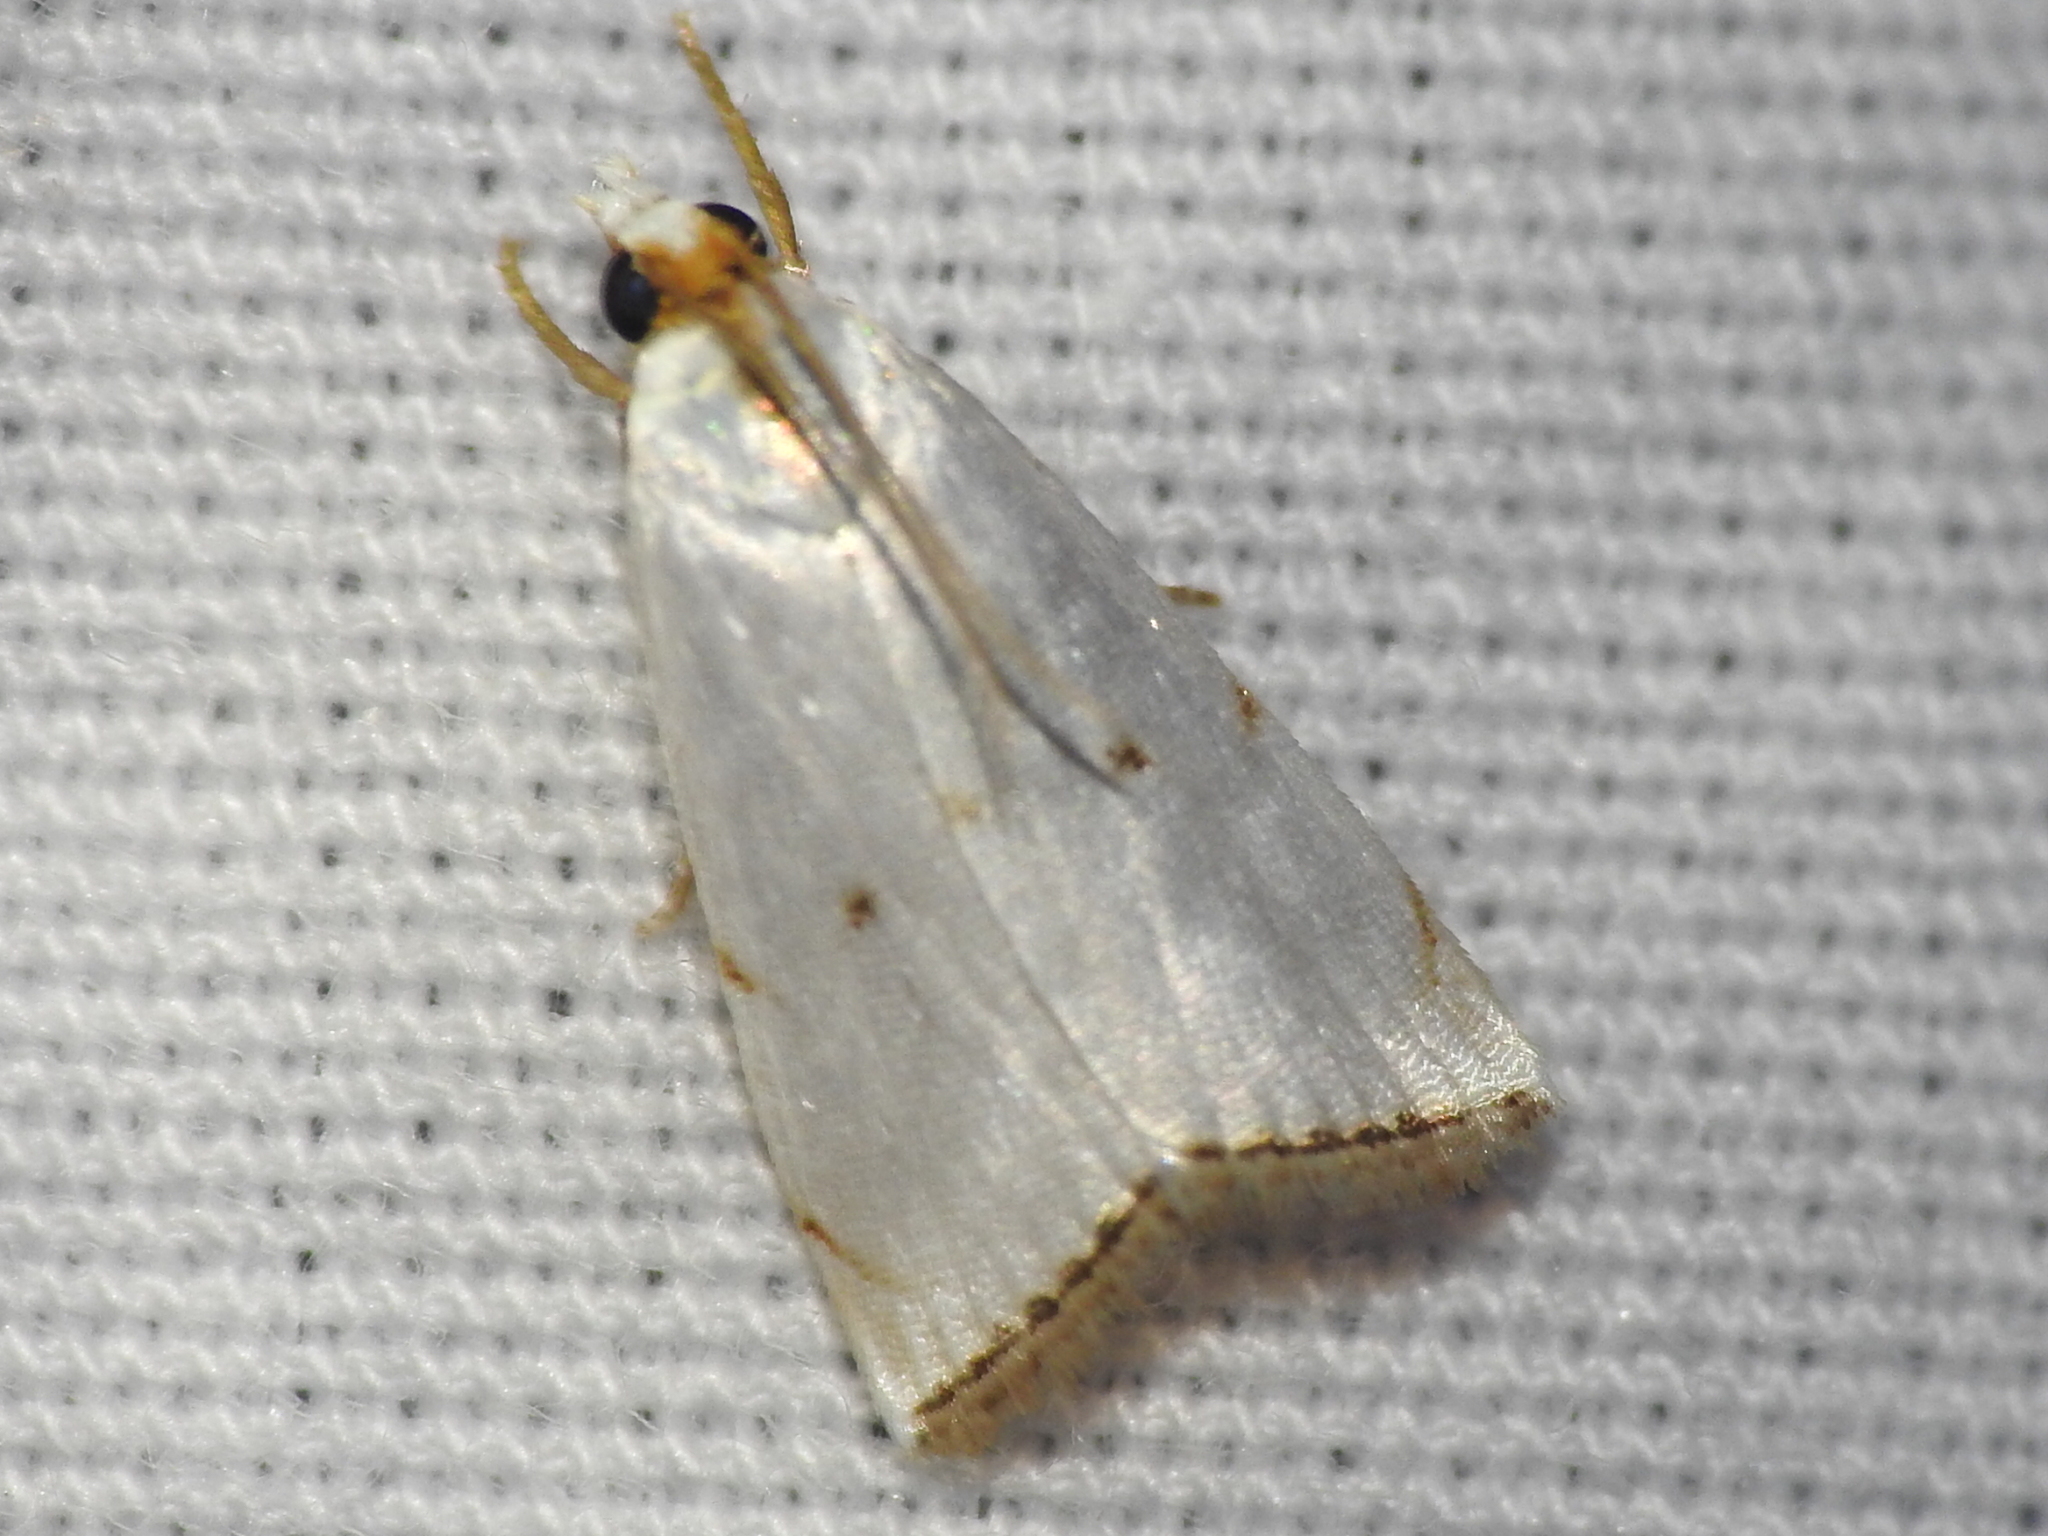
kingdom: Animalia
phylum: Arthropoda
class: Insecta
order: Lepidoptera
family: Crambidae
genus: Argyria
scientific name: Argyria pusillalis
